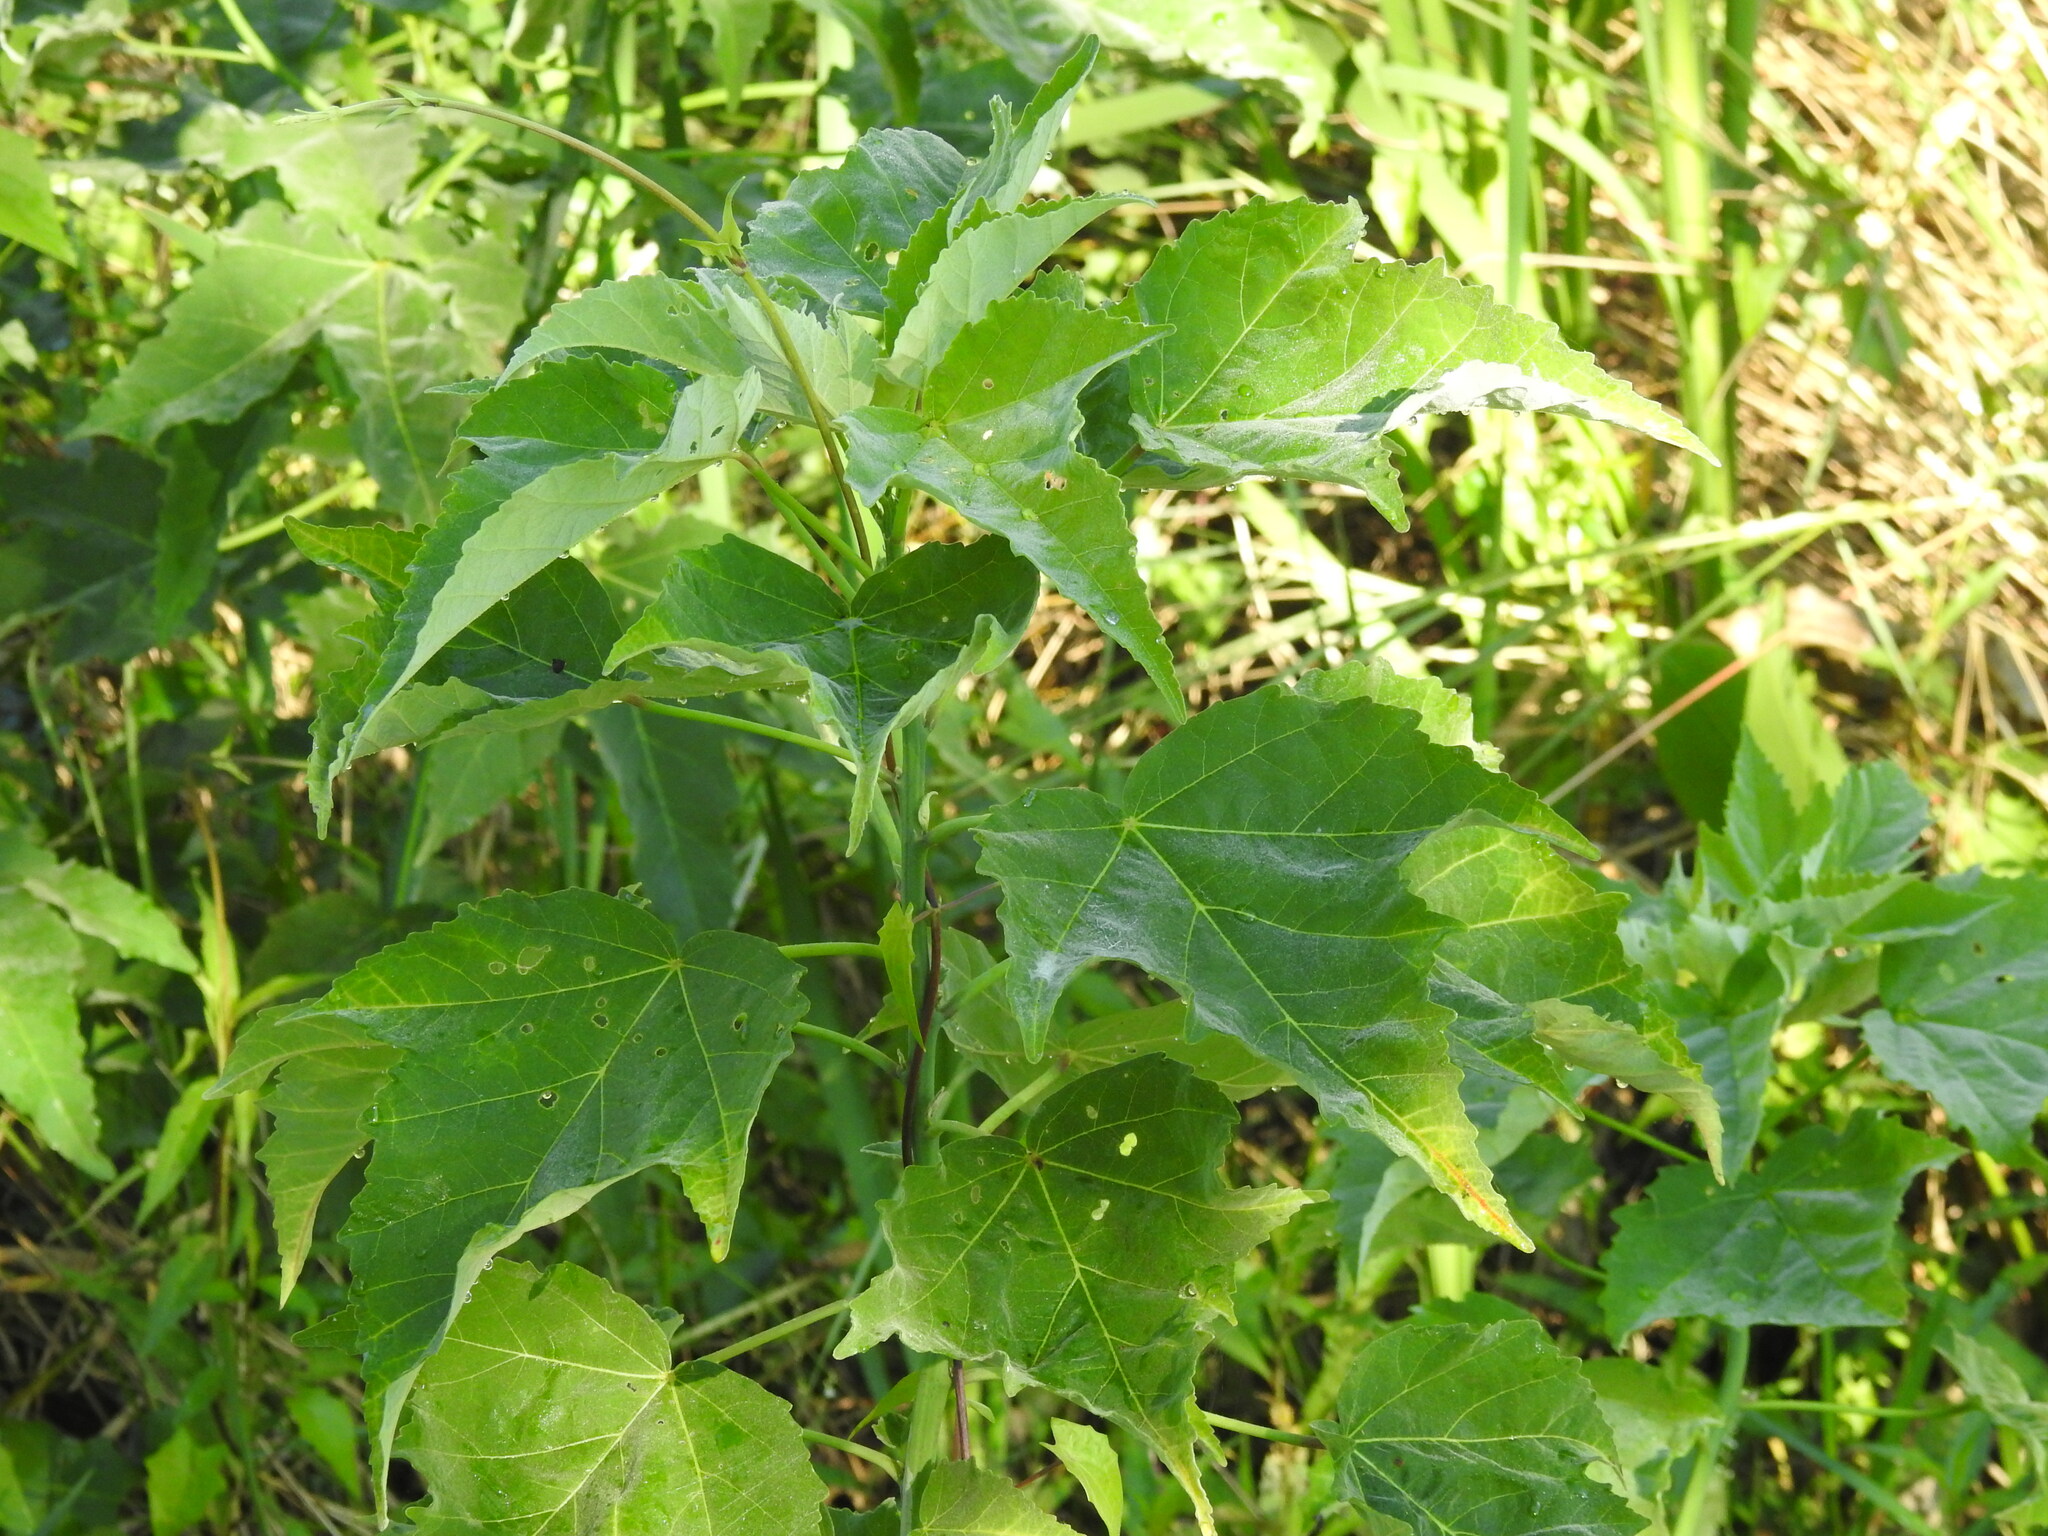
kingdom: Plantae
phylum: Tracheophyta
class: Magnoliopsida
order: Malvales
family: Malvaceae
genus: Hibiscus
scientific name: Hibiscus grandiflorus
